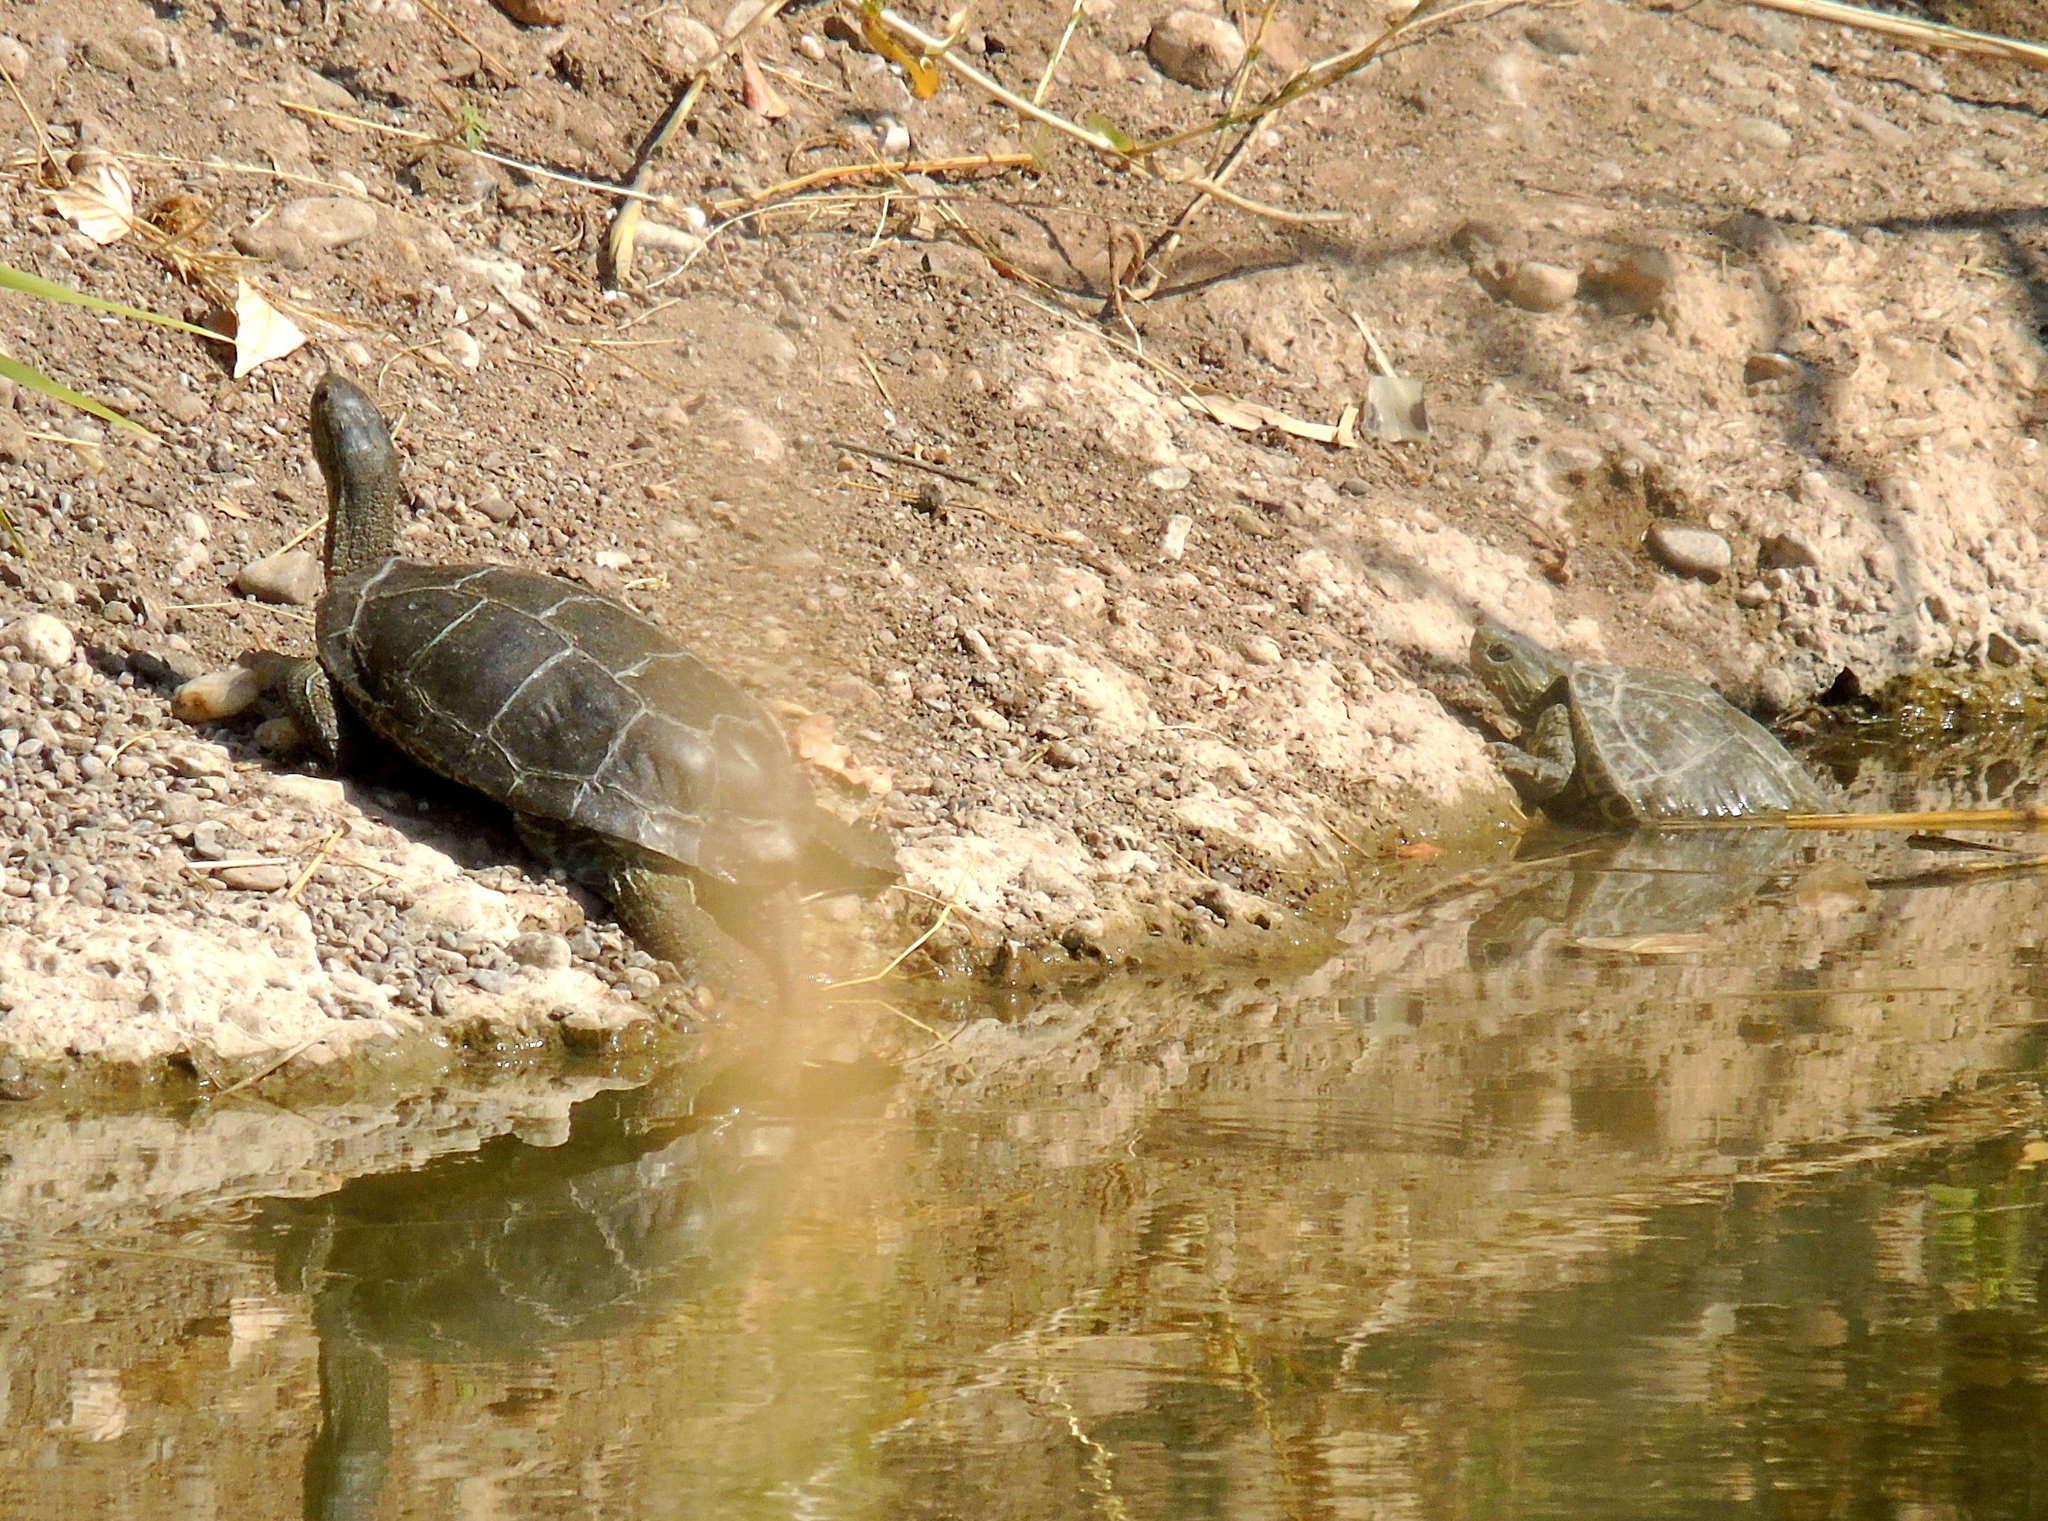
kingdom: Animalia
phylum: Chordata
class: Testudines
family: Geoemydidae
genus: Mauremys
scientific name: Mauremys caspica
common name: Caspian turtle
